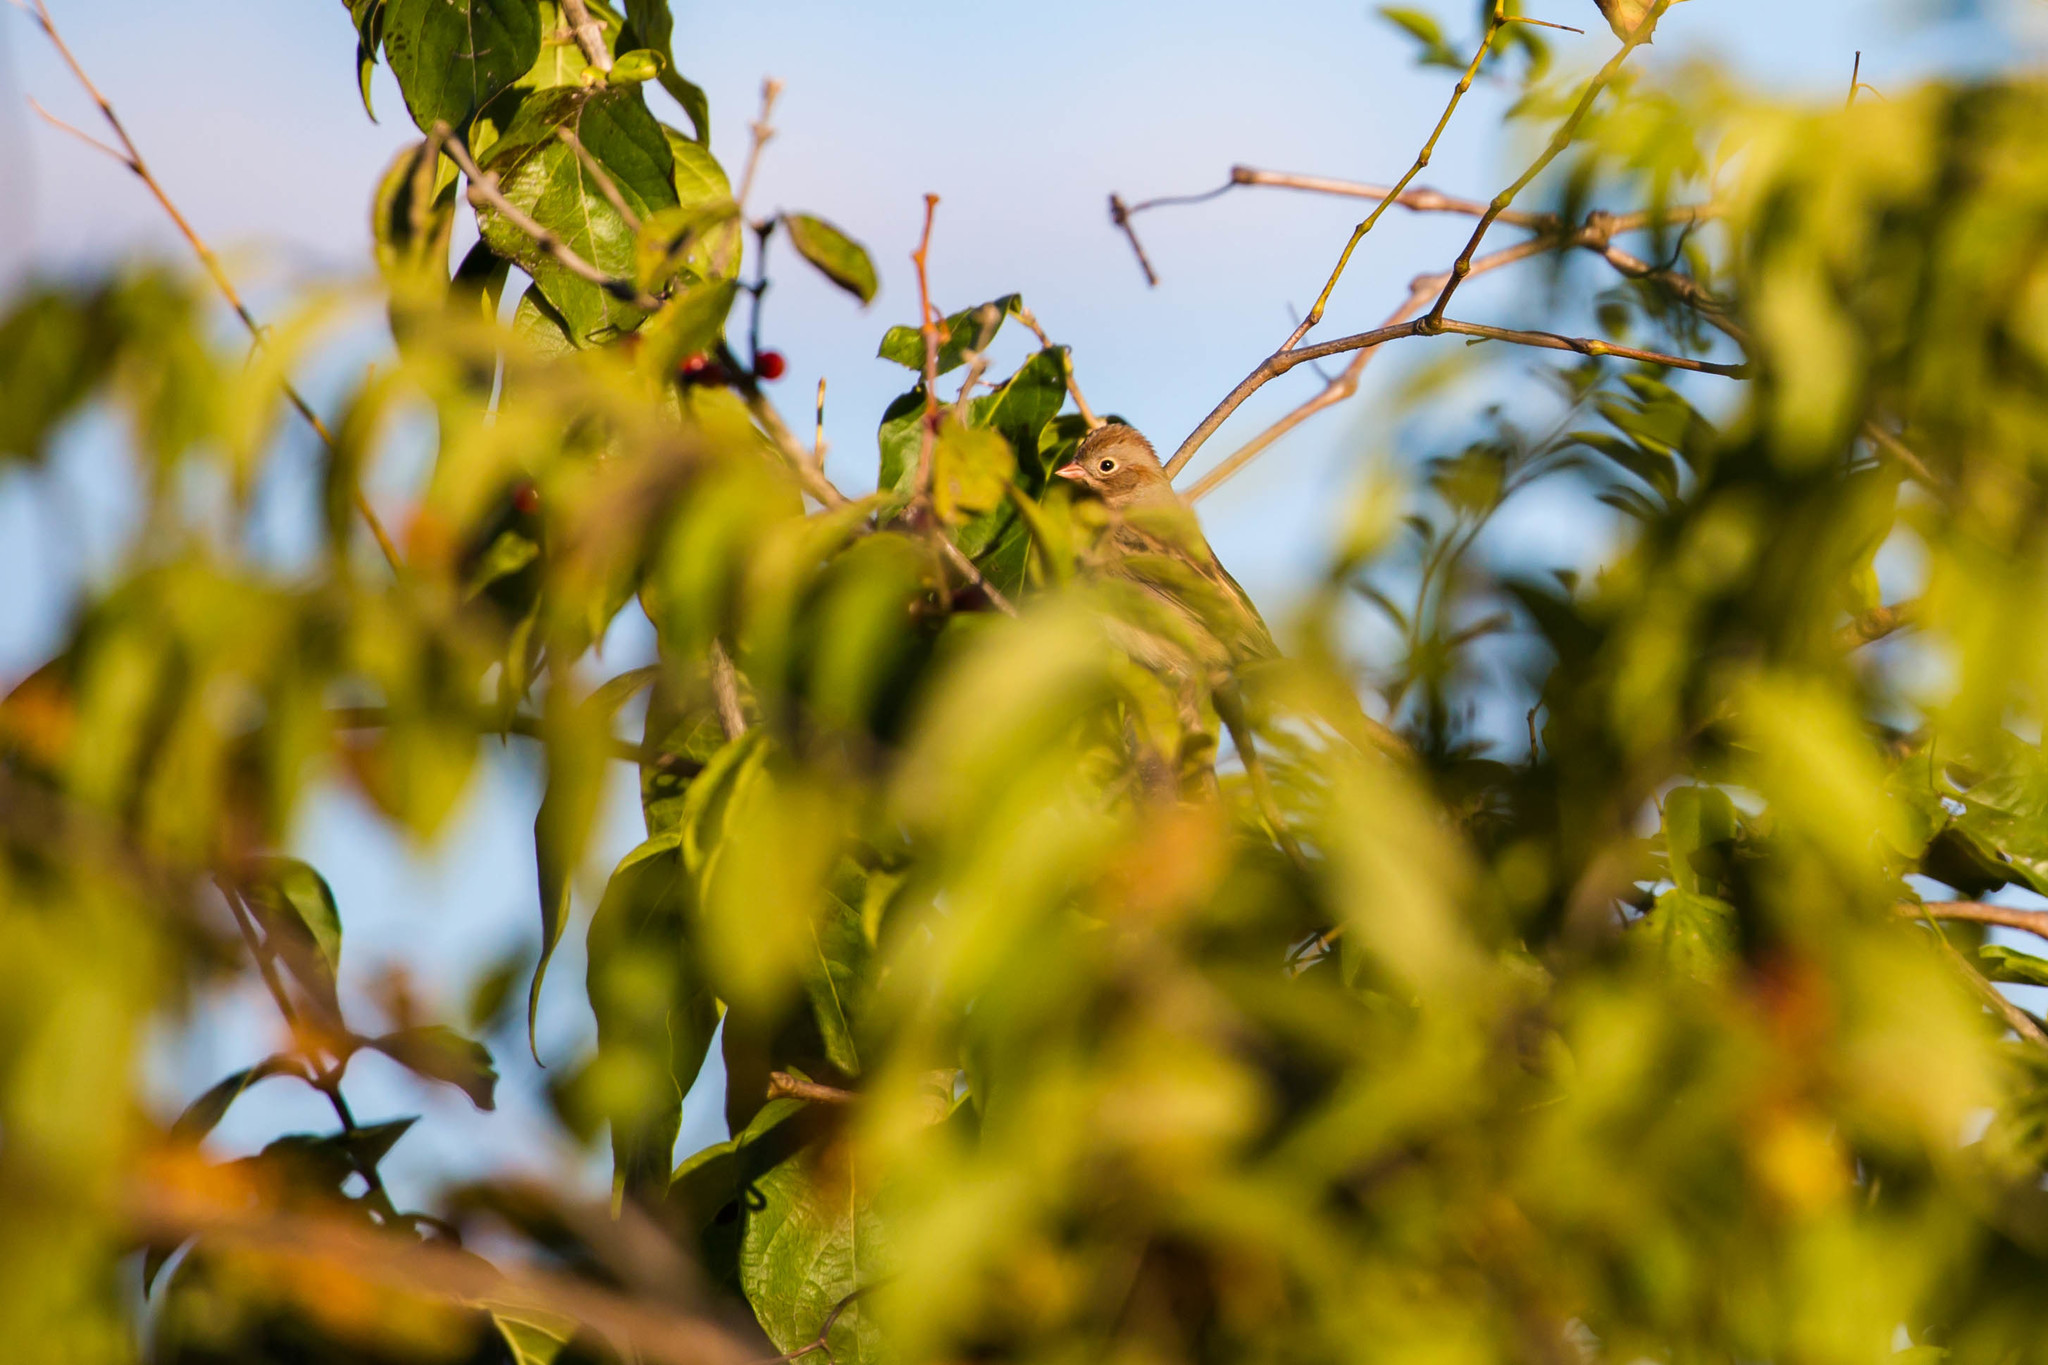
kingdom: Animalia
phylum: Chordata
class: Aves
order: Passeriformes
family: Passerellidae
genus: Spizella
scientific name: Spizella pusilla
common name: Field sparrow
